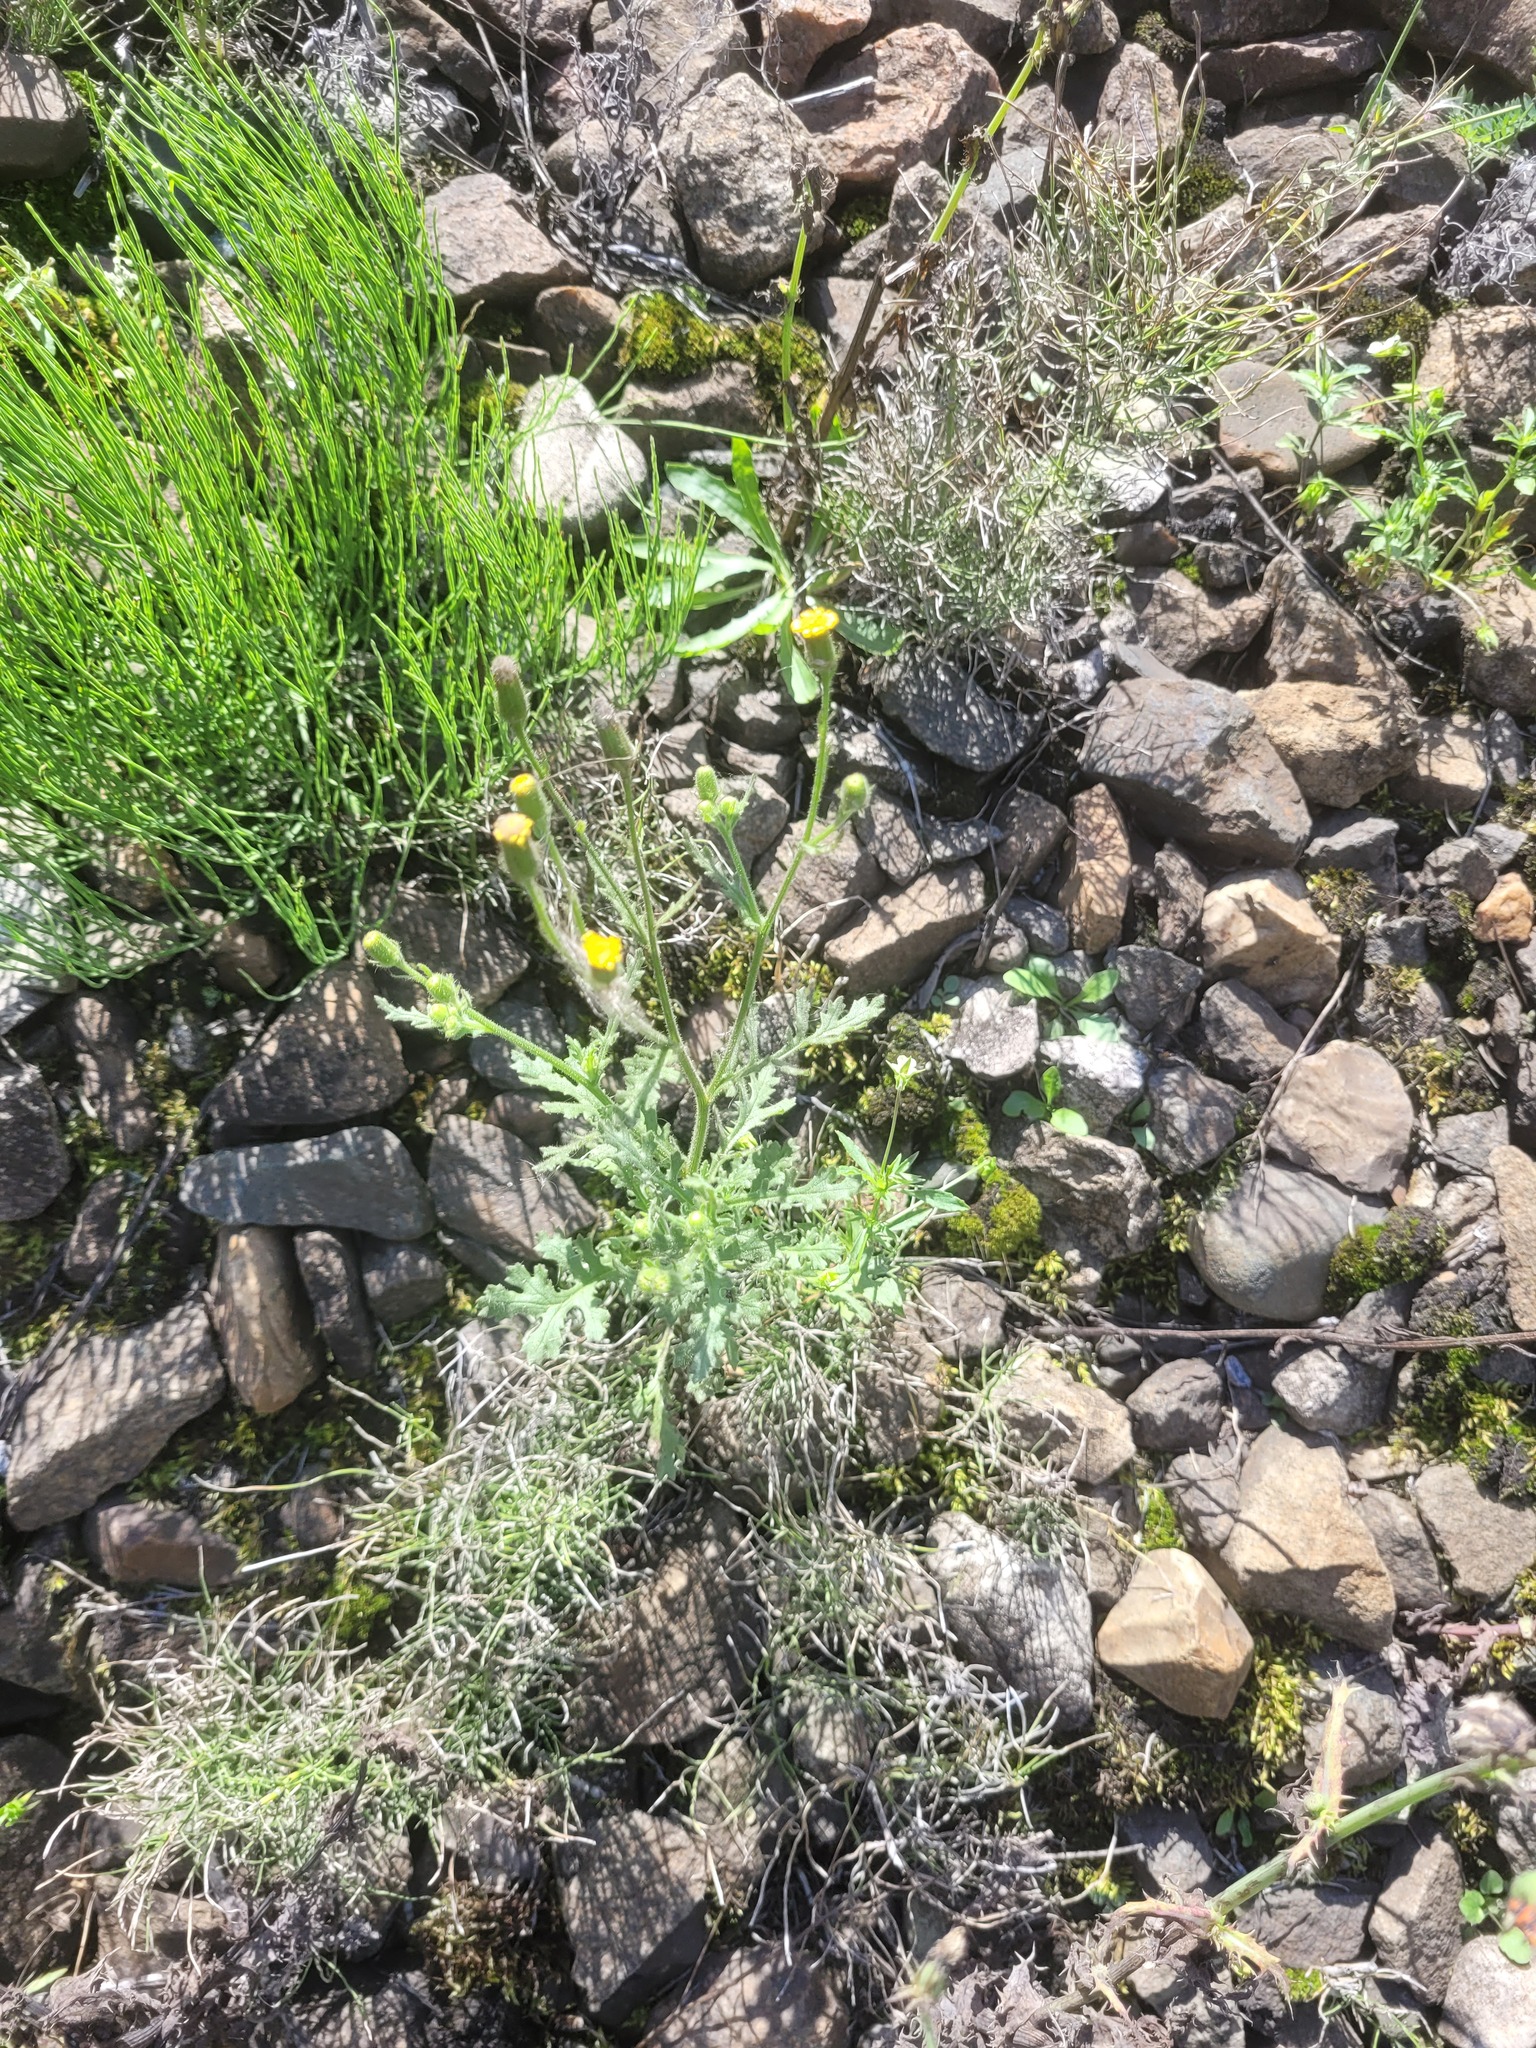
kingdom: Plantae
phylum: Tracheophyta
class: Magnoliopsida
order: Asterales
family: Asteraceae
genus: Senecio
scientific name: Senecio viscosus
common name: Sticky groundsel
